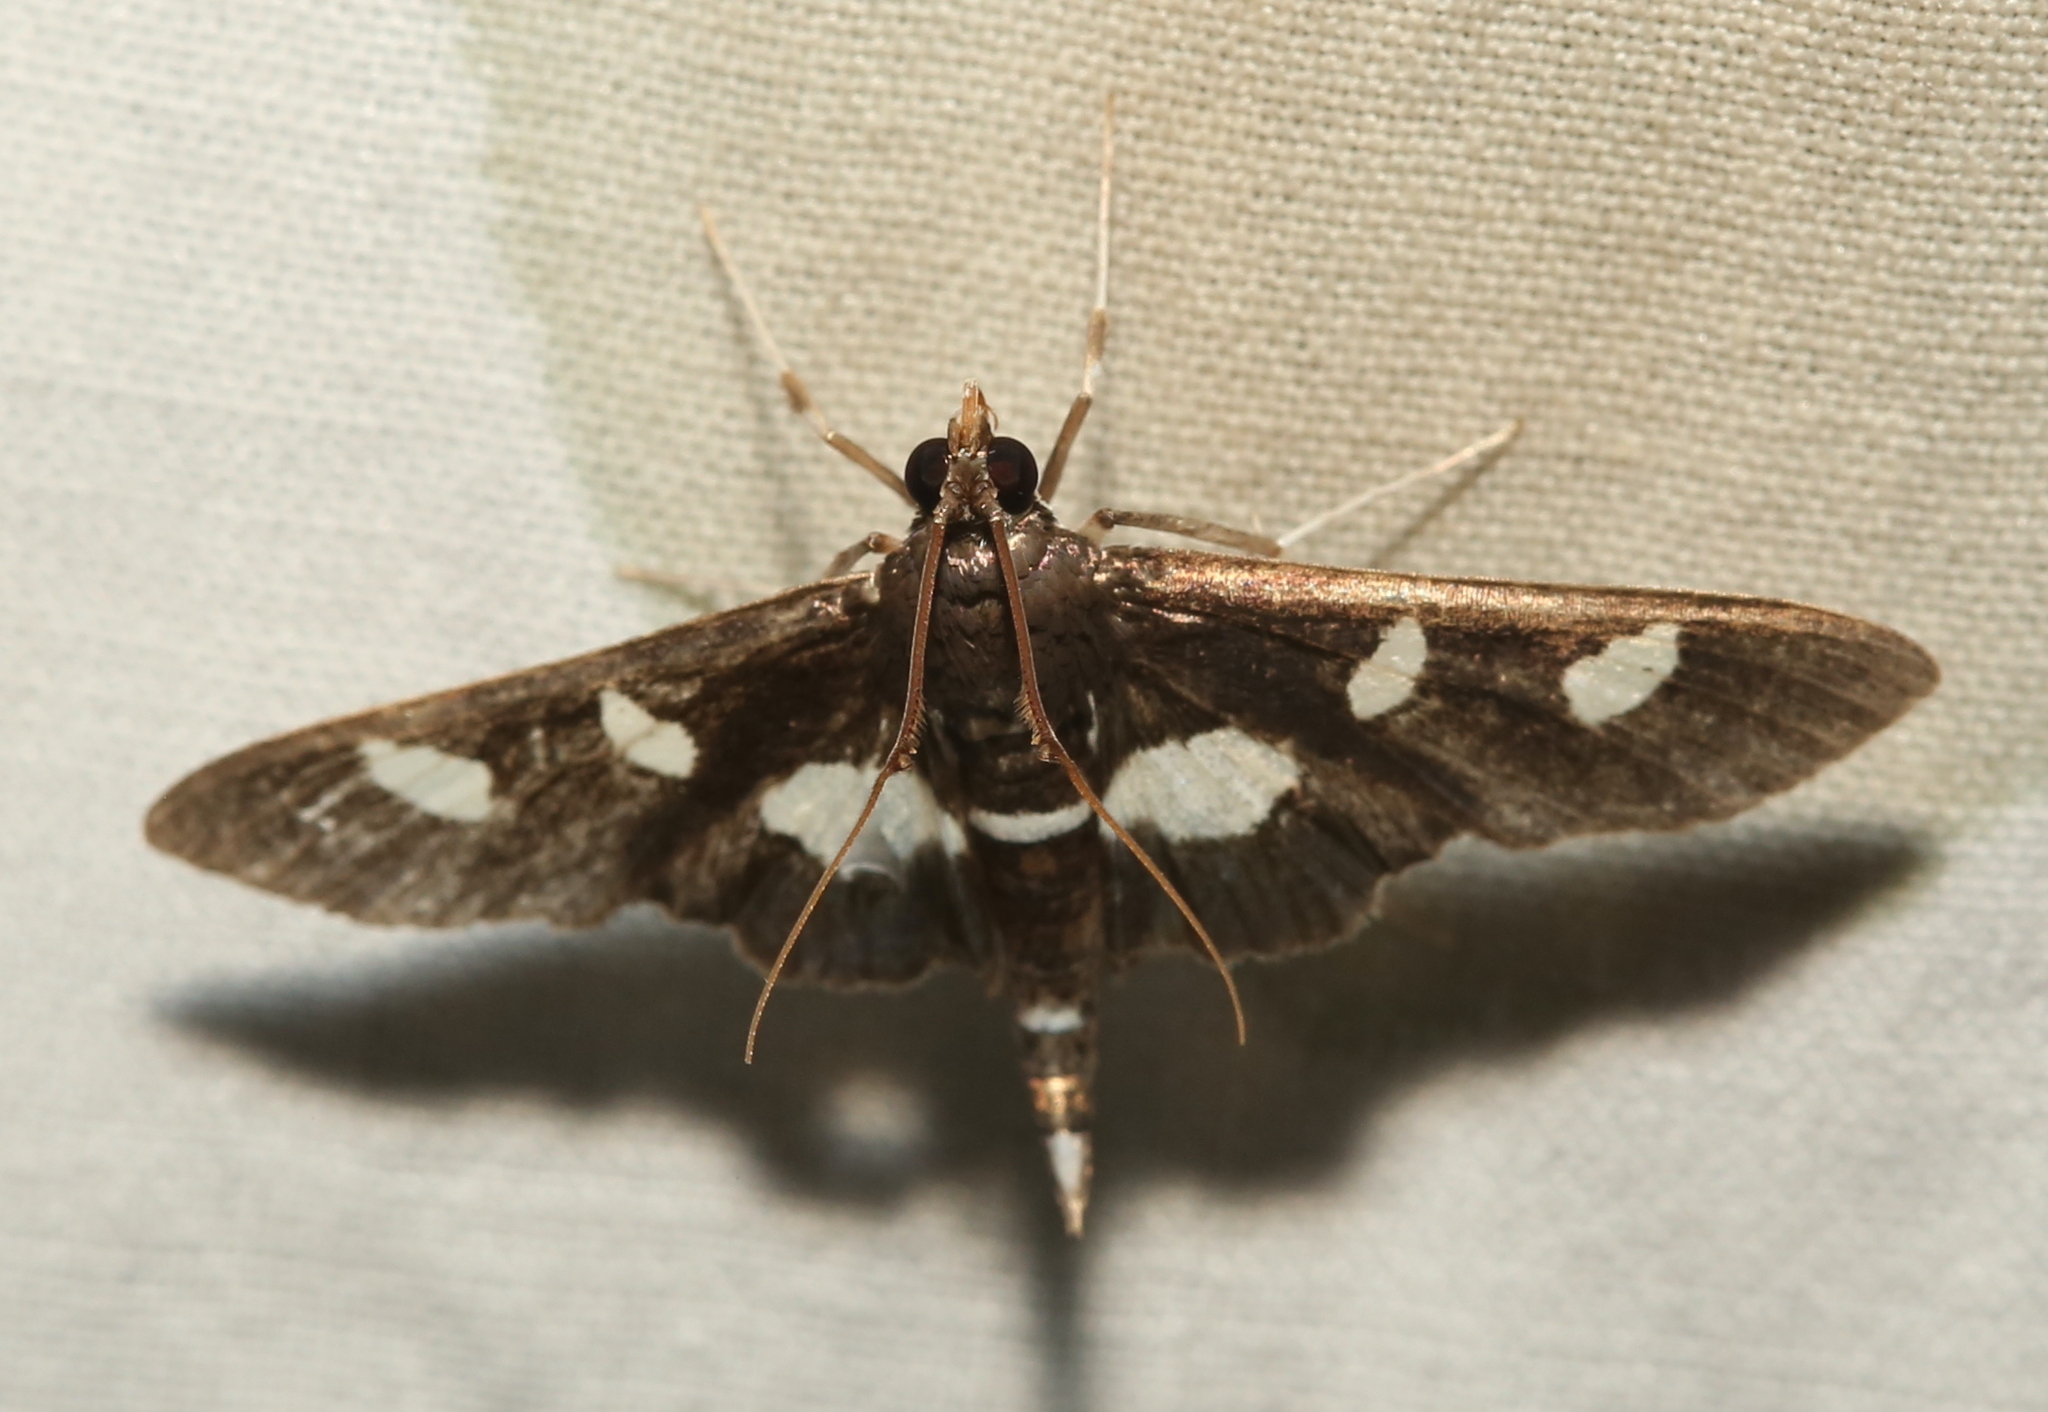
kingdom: Animalia
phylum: Arthropoda
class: Insecta
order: Lepidoptera
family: Crambidae
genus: Desmia
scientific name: Desmia
